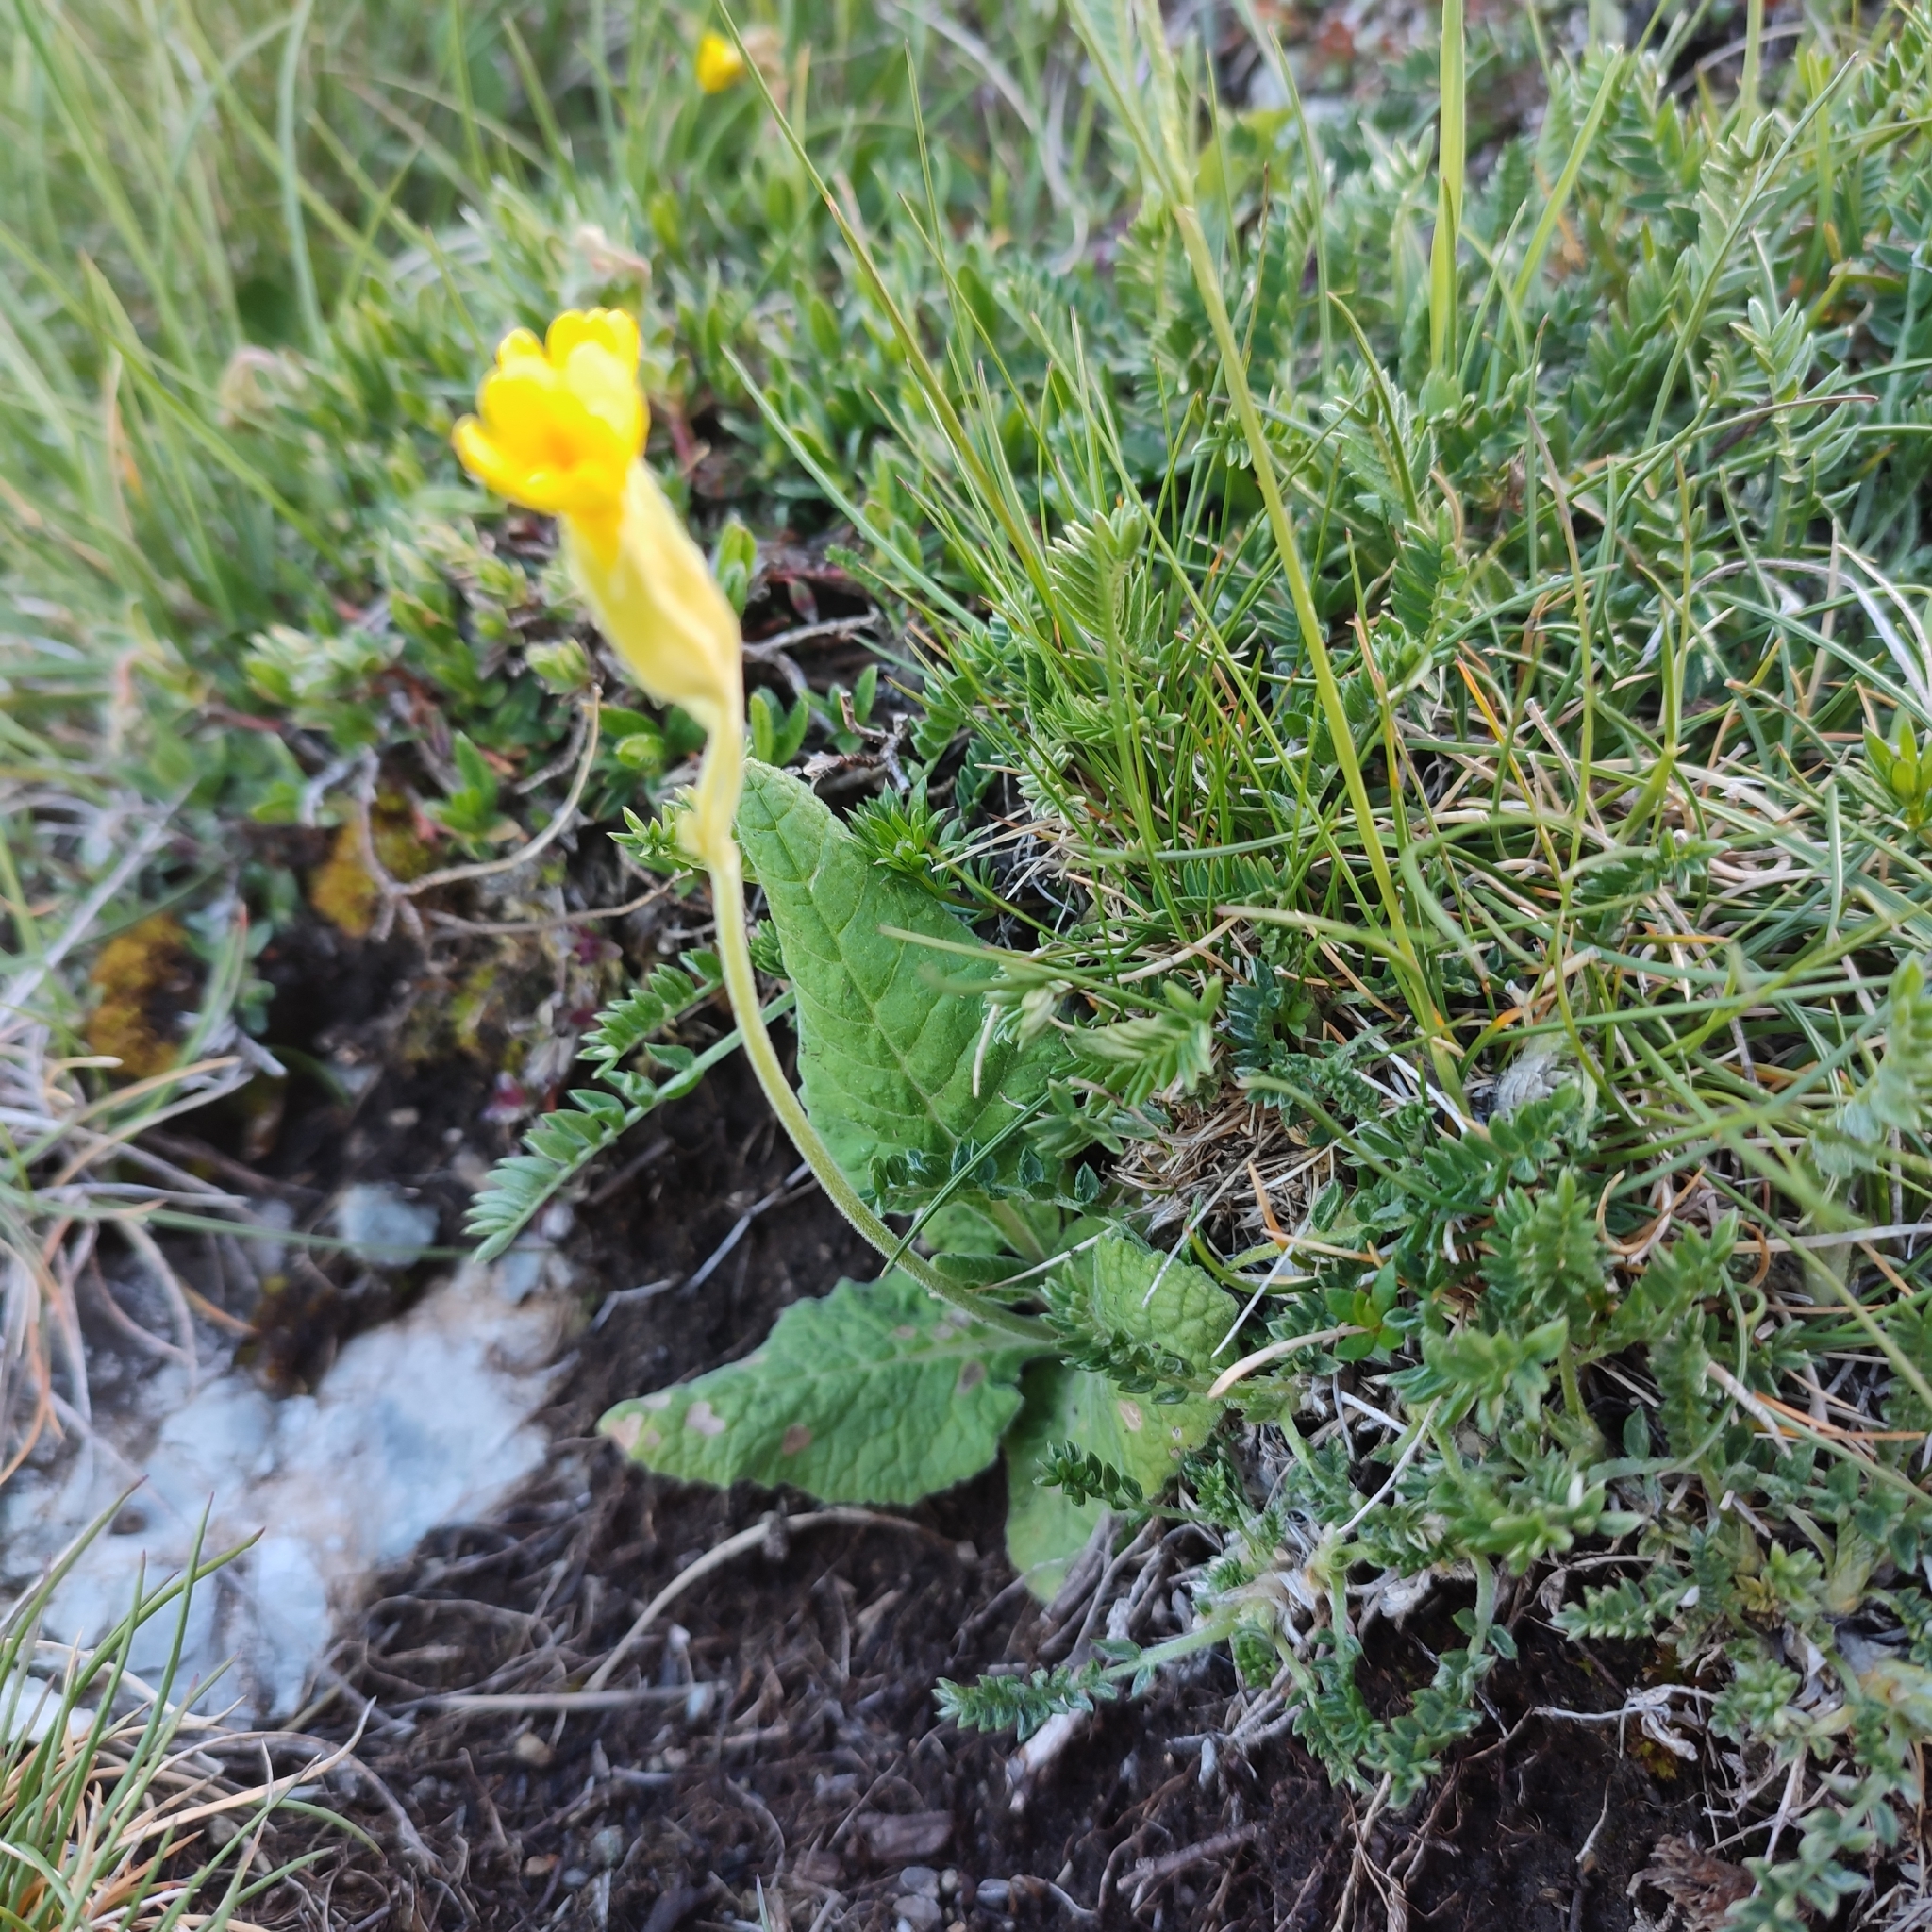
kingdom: Plantae
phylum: Tracheophyta
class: Magnoliopsida
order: Ericales
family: Primulaceae
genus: Primula
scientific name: Primula veris
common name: Cowslip
